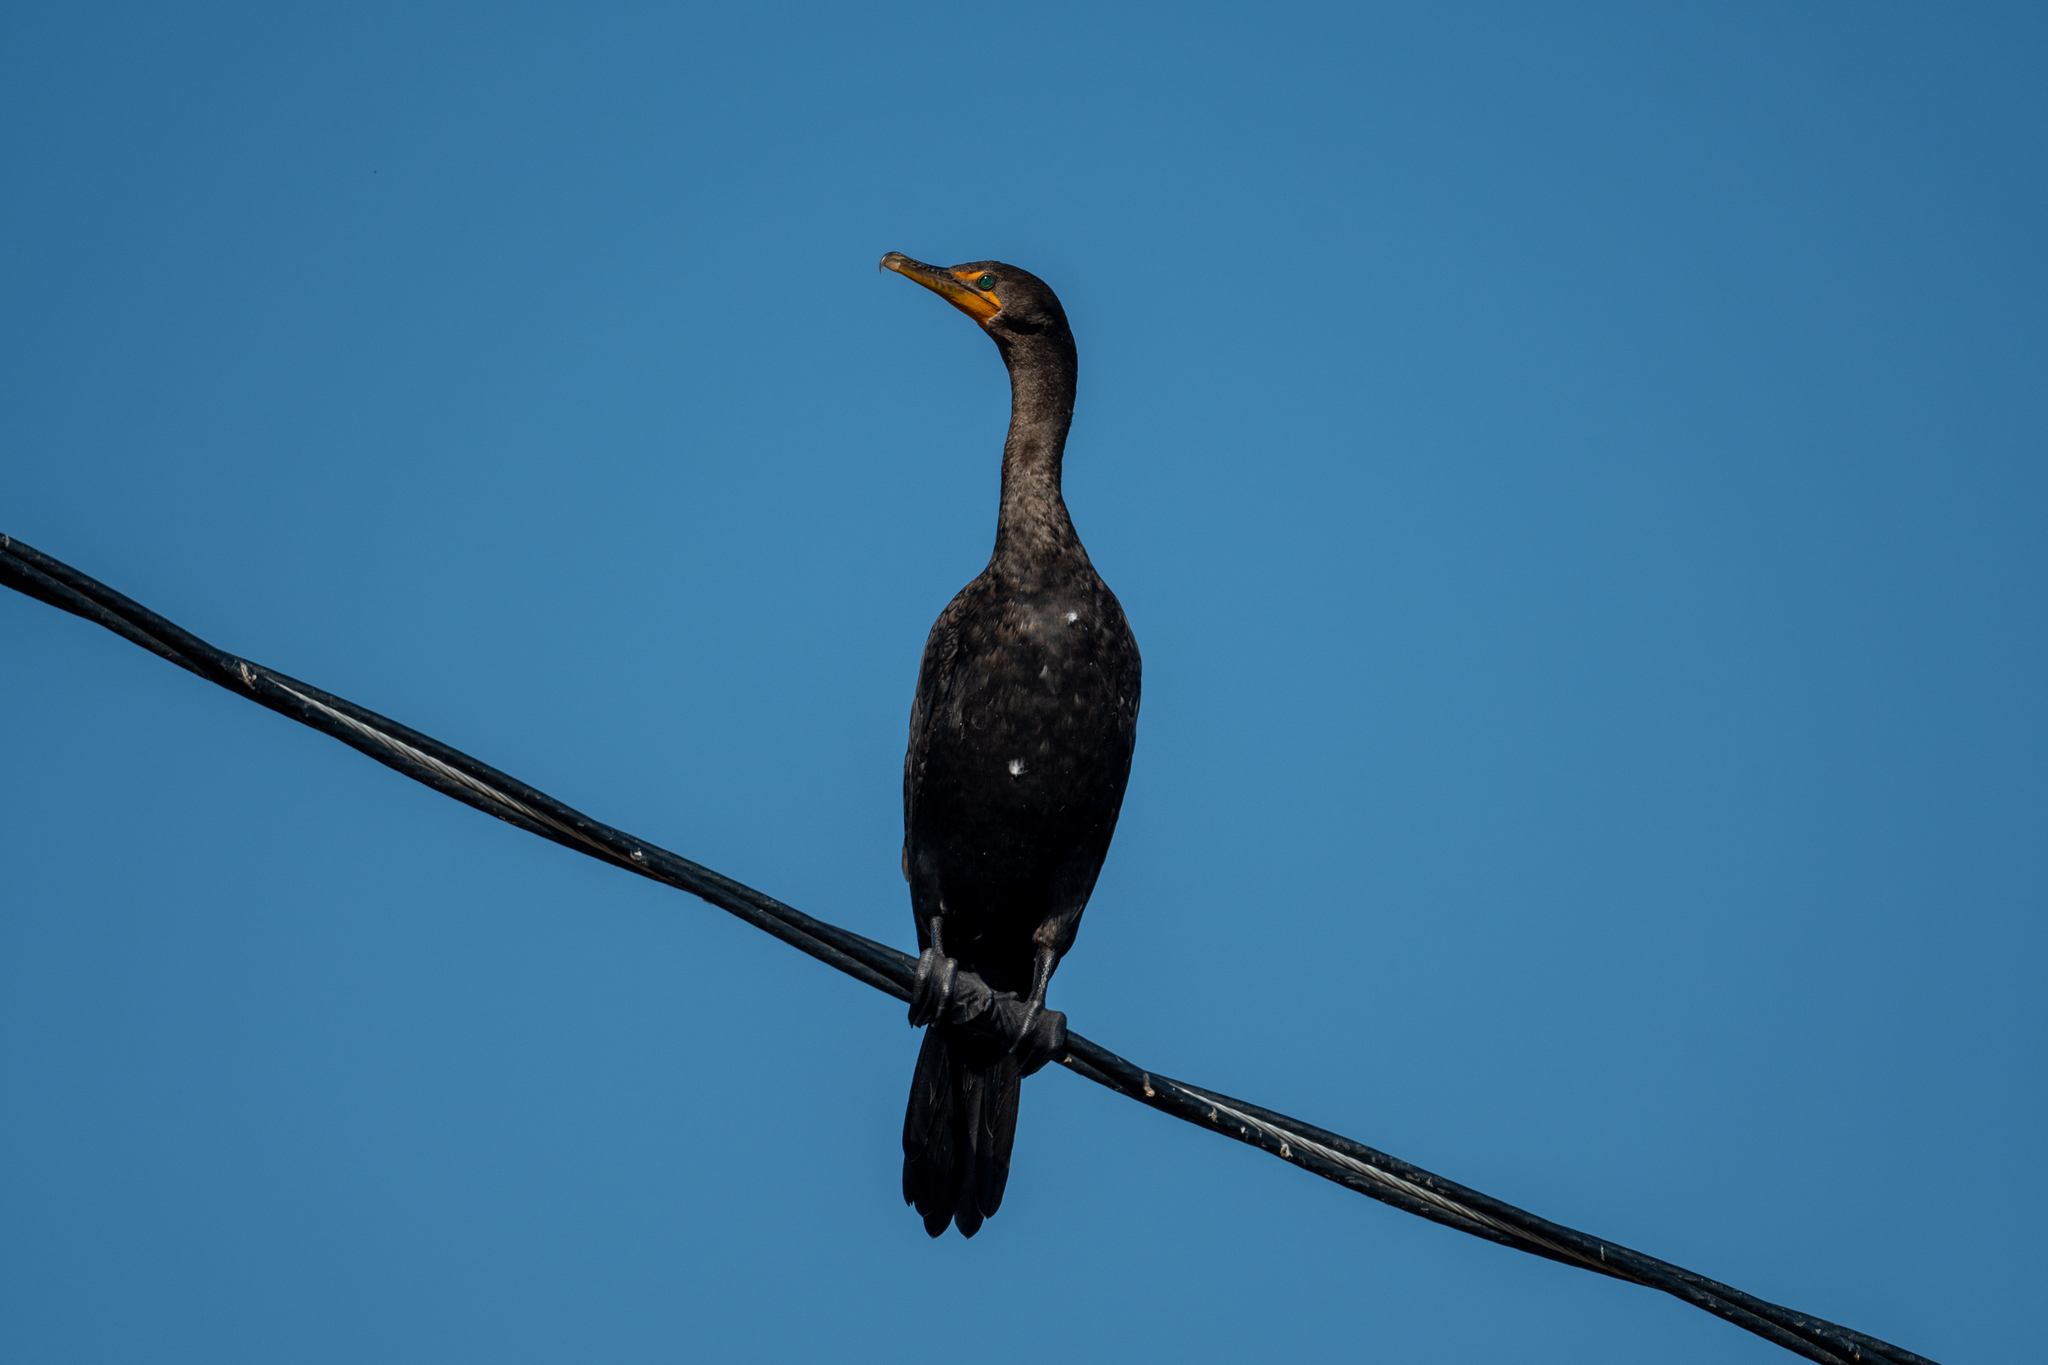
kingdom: Animalia
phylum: Chordata
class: Aves
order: Suliformes
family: Phalacrocoracidae
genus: Phalacrocorax
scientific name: Phalacrocorax auritus
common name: Double-crested cormorant
